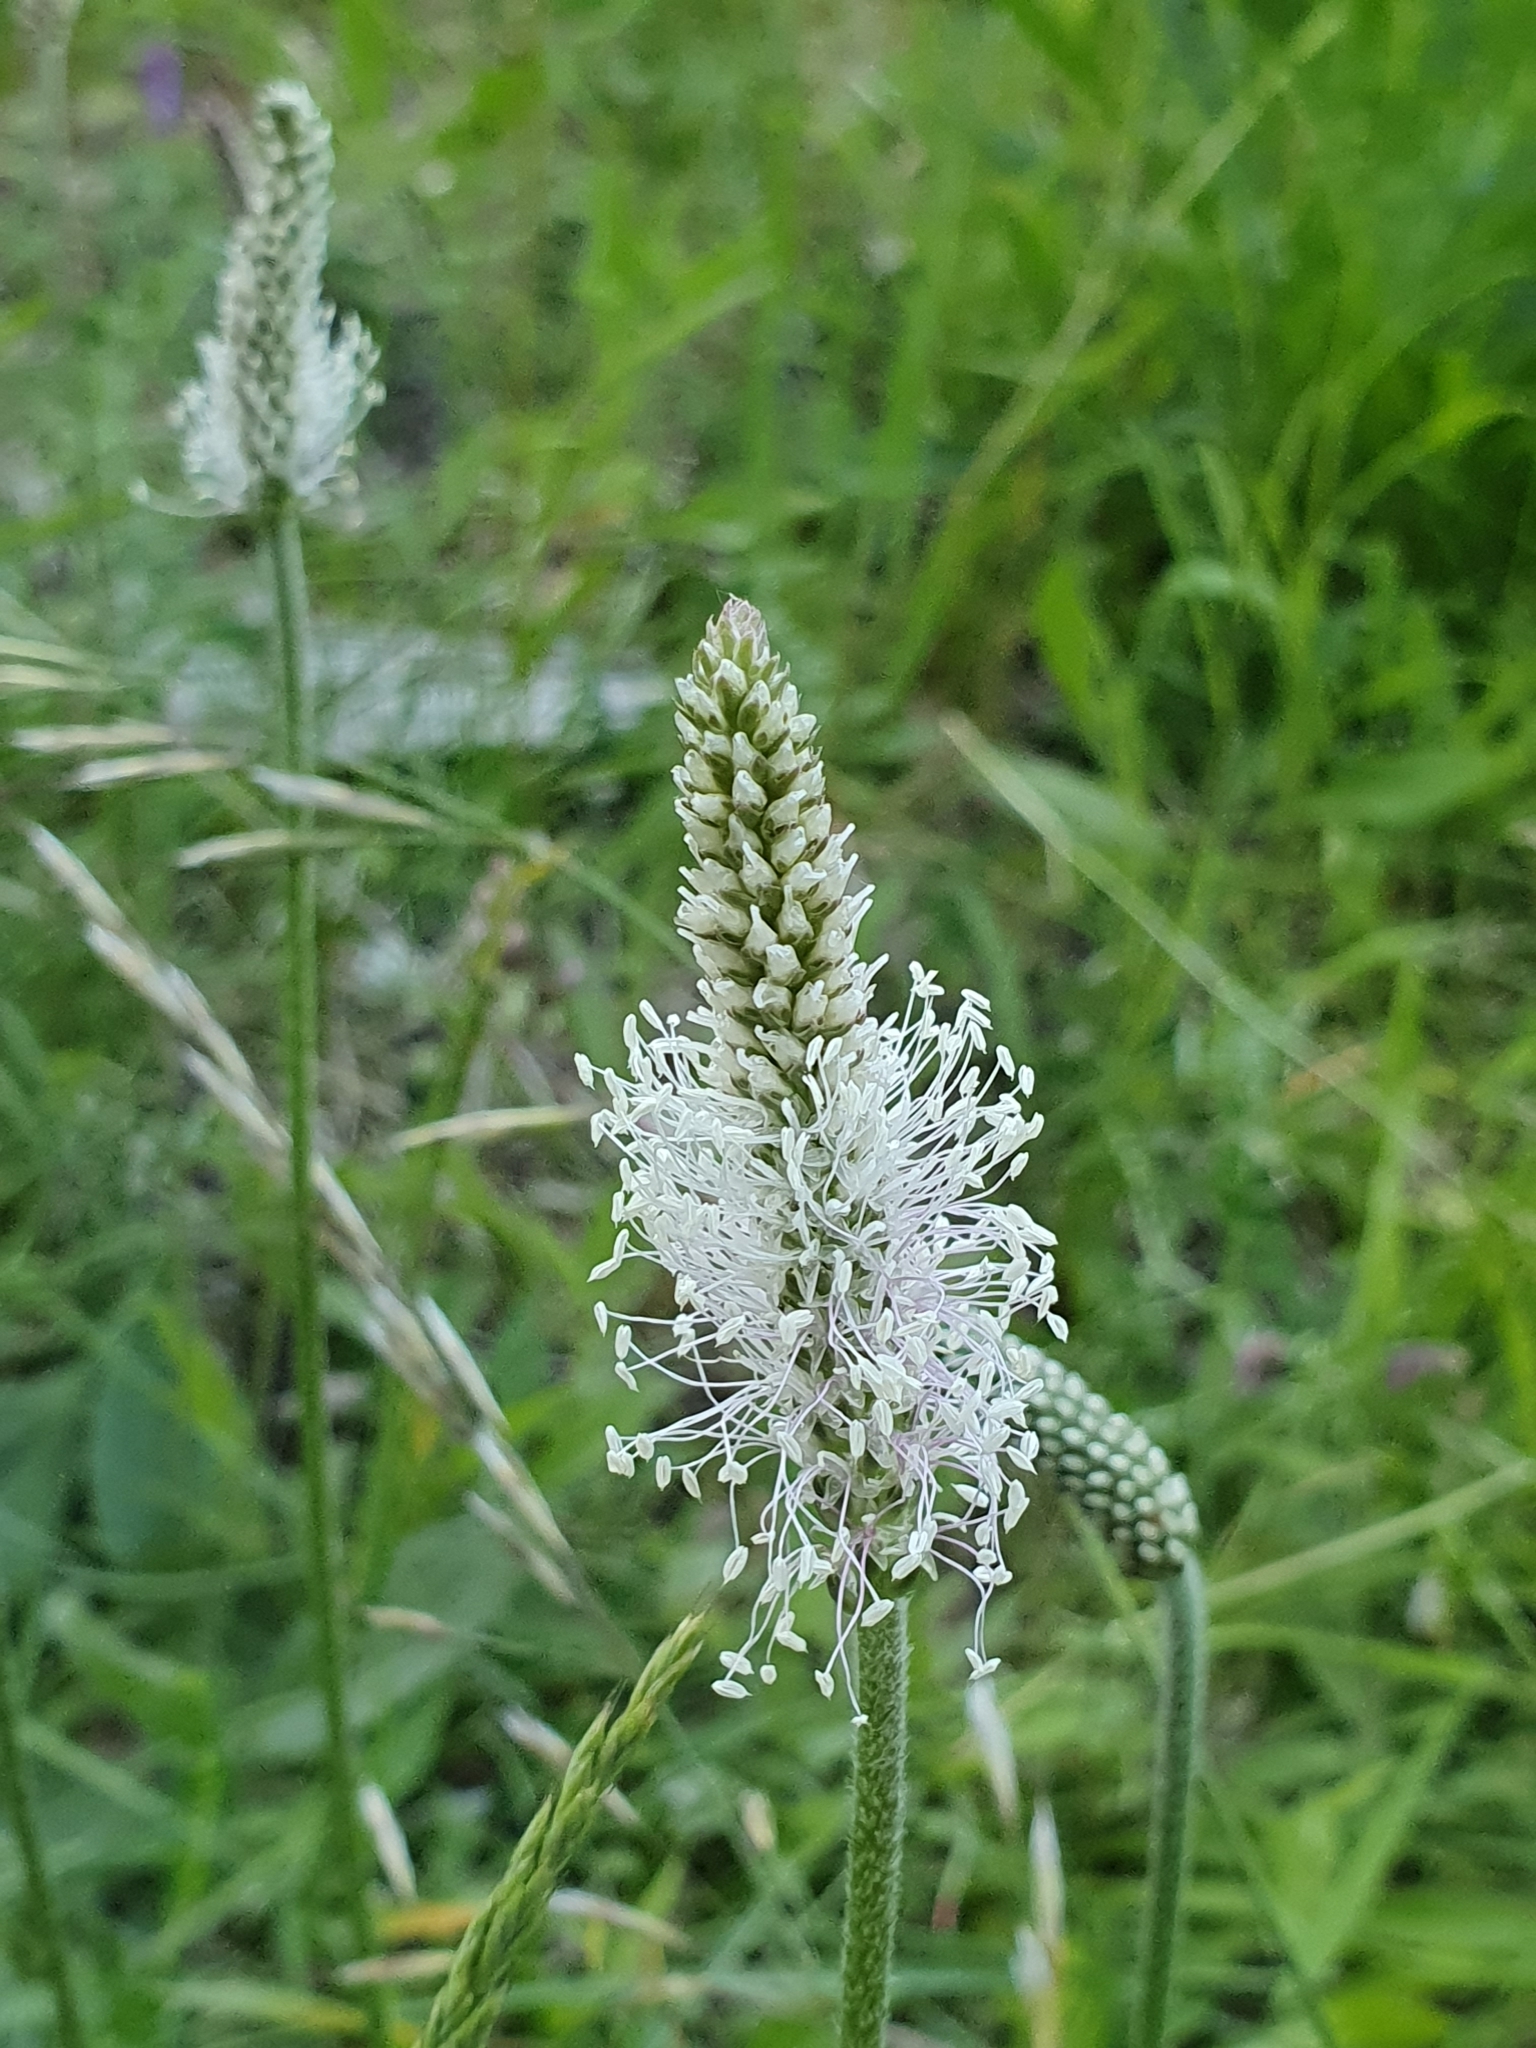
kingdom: Plantae
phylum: Tracheophyta
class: Magnoliopsida
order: Lamiales
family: Plantaginaceae
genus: Plantago
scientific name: Plantago media
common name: Hoary plantain
